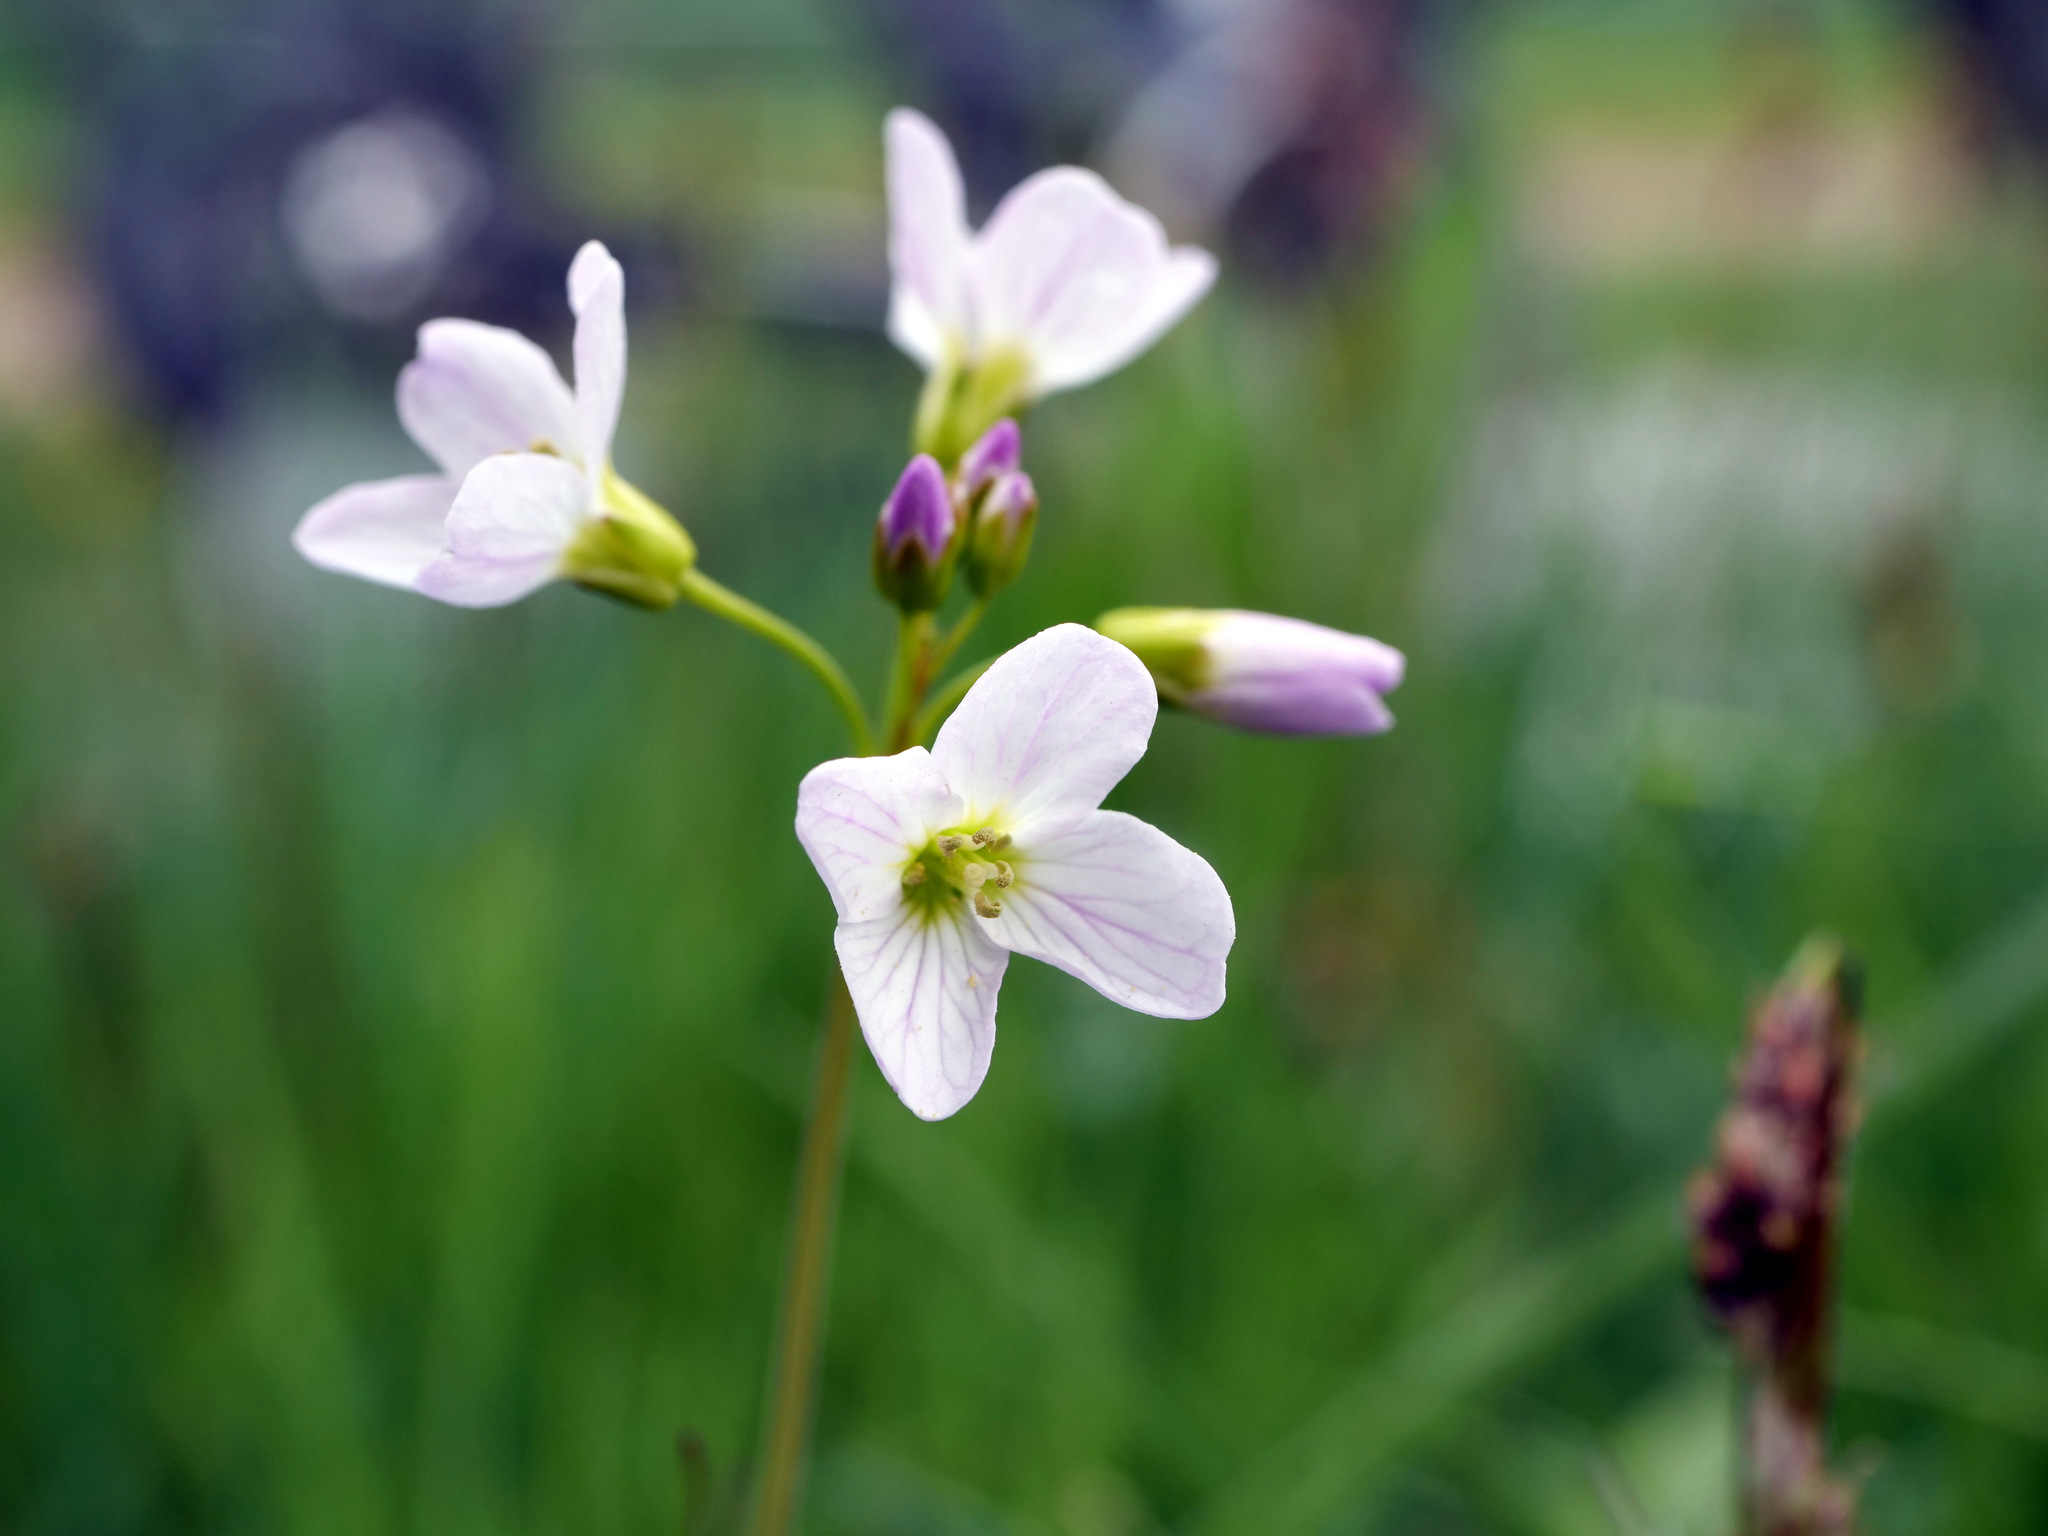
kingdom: Plantae
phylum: Tracheophyta
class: Magnoliopsida
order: Brassicales
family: Brassicaceae
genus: Cardamine
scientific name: Cardamine pratensis
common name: Cuckoo flower
